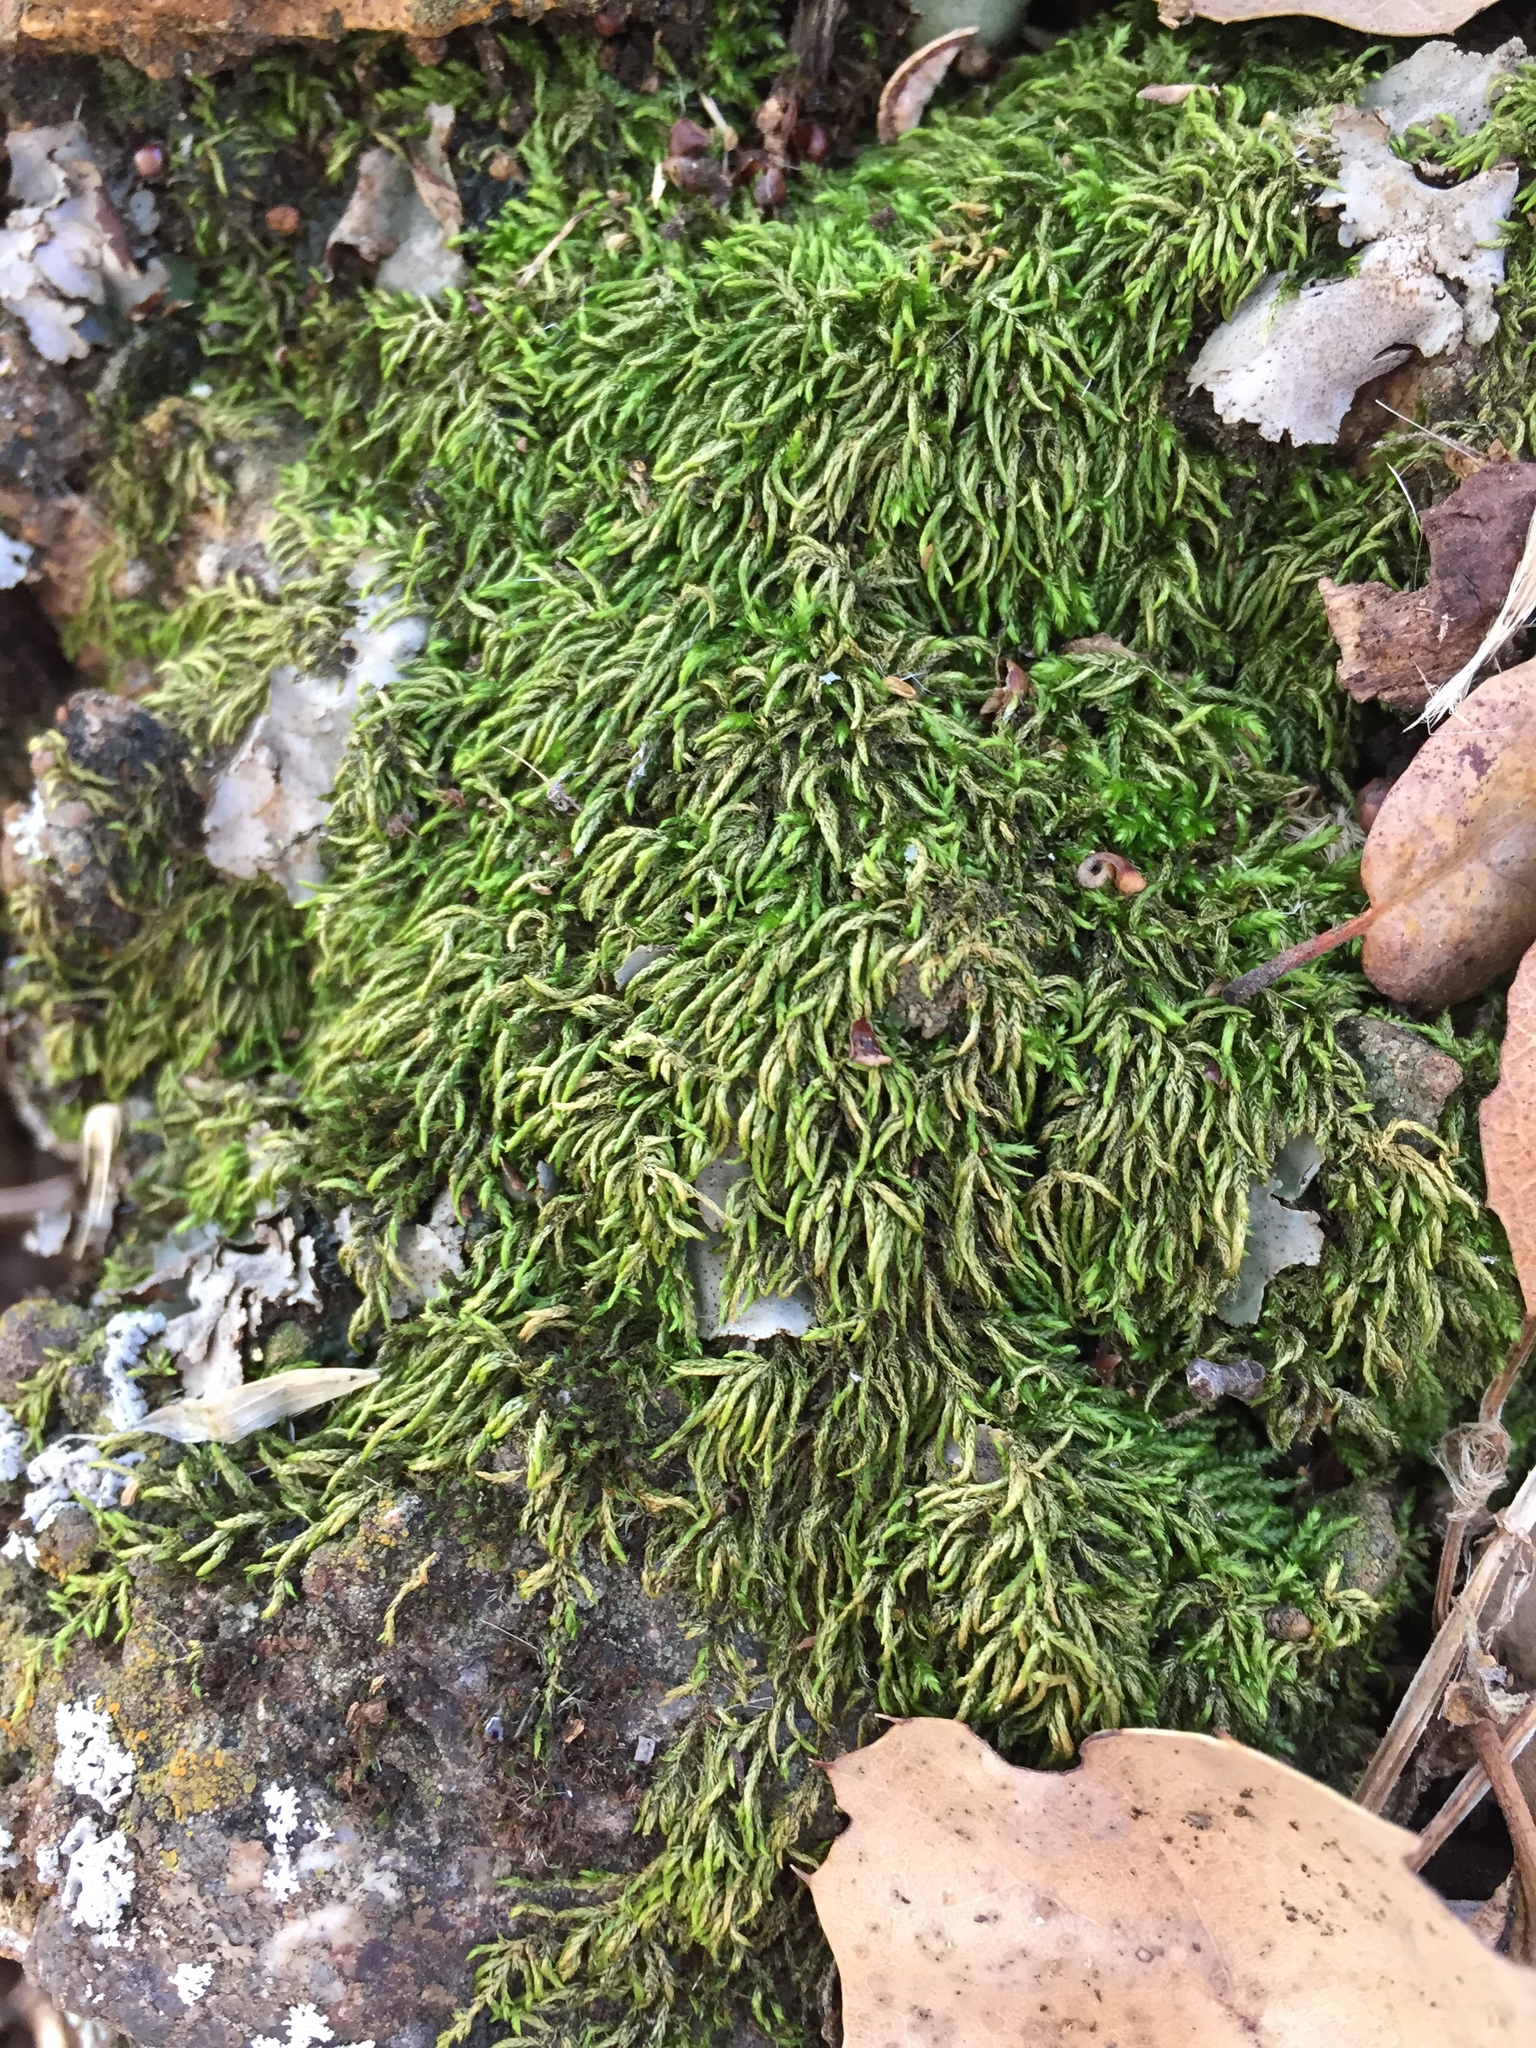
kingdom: Plantae
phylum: Bryophyta
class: Bryopsida
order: Hypnales
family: Brachytheciaceae
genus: Scleropodium
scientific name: Scleropodium obtusifolium
